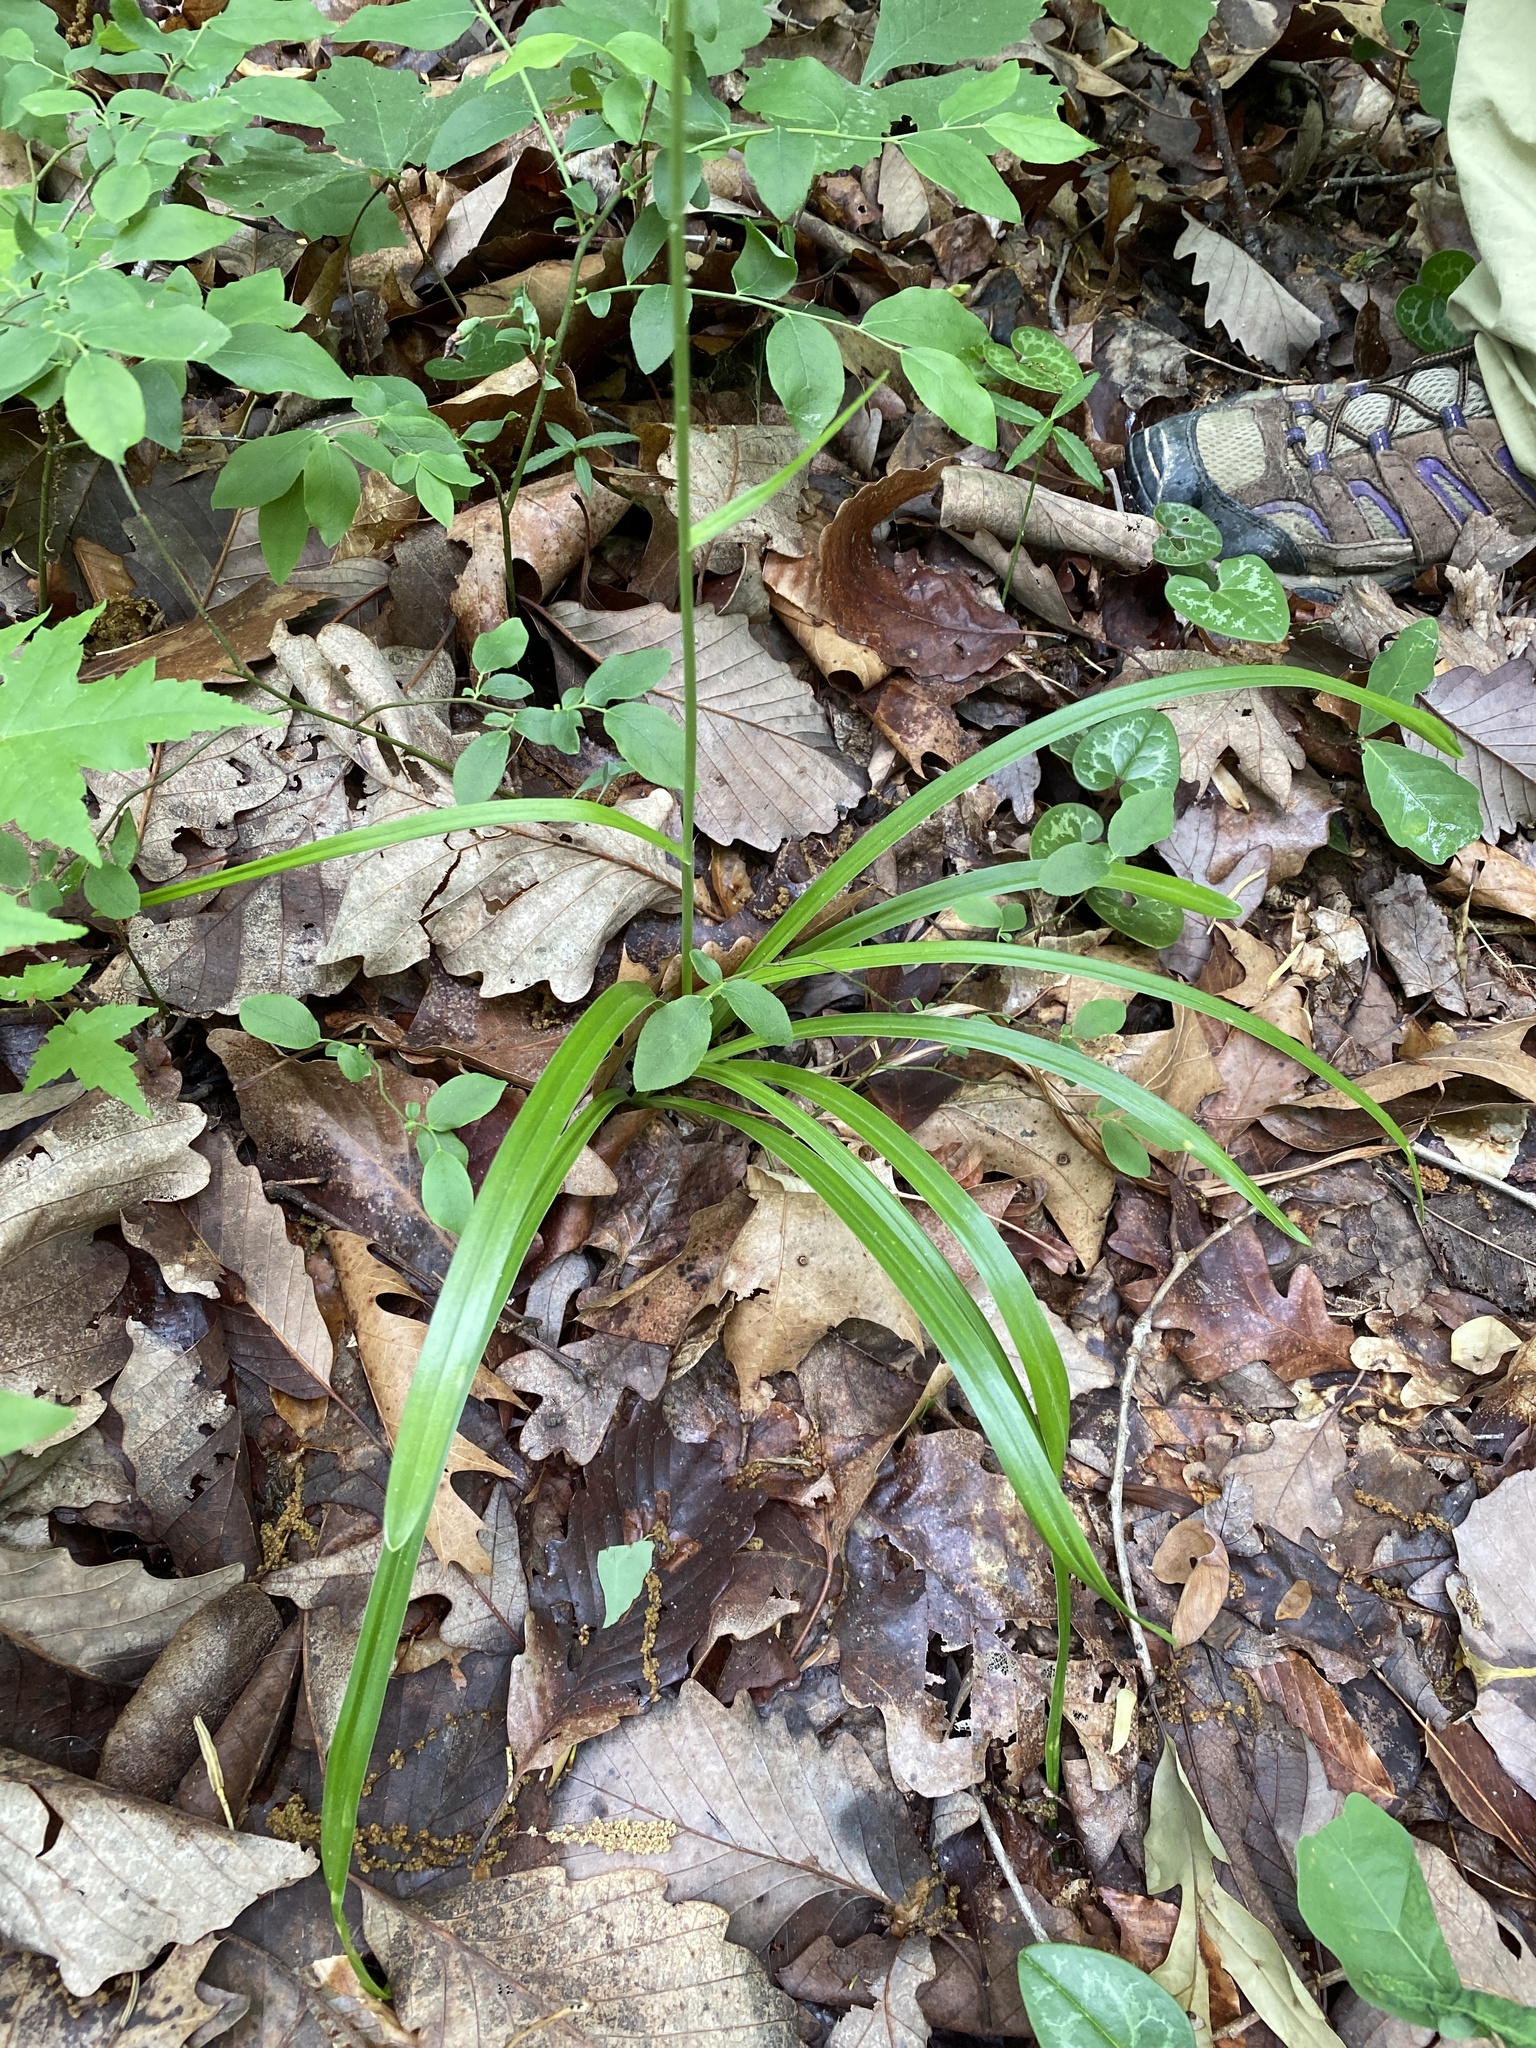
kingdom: Plantae
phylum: Tracheophyta
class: Liliopsida
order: Liliales
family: Melanthiaceae
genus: Amianthium
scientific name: Amianthium muscitoxicum
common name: Fly-poison
